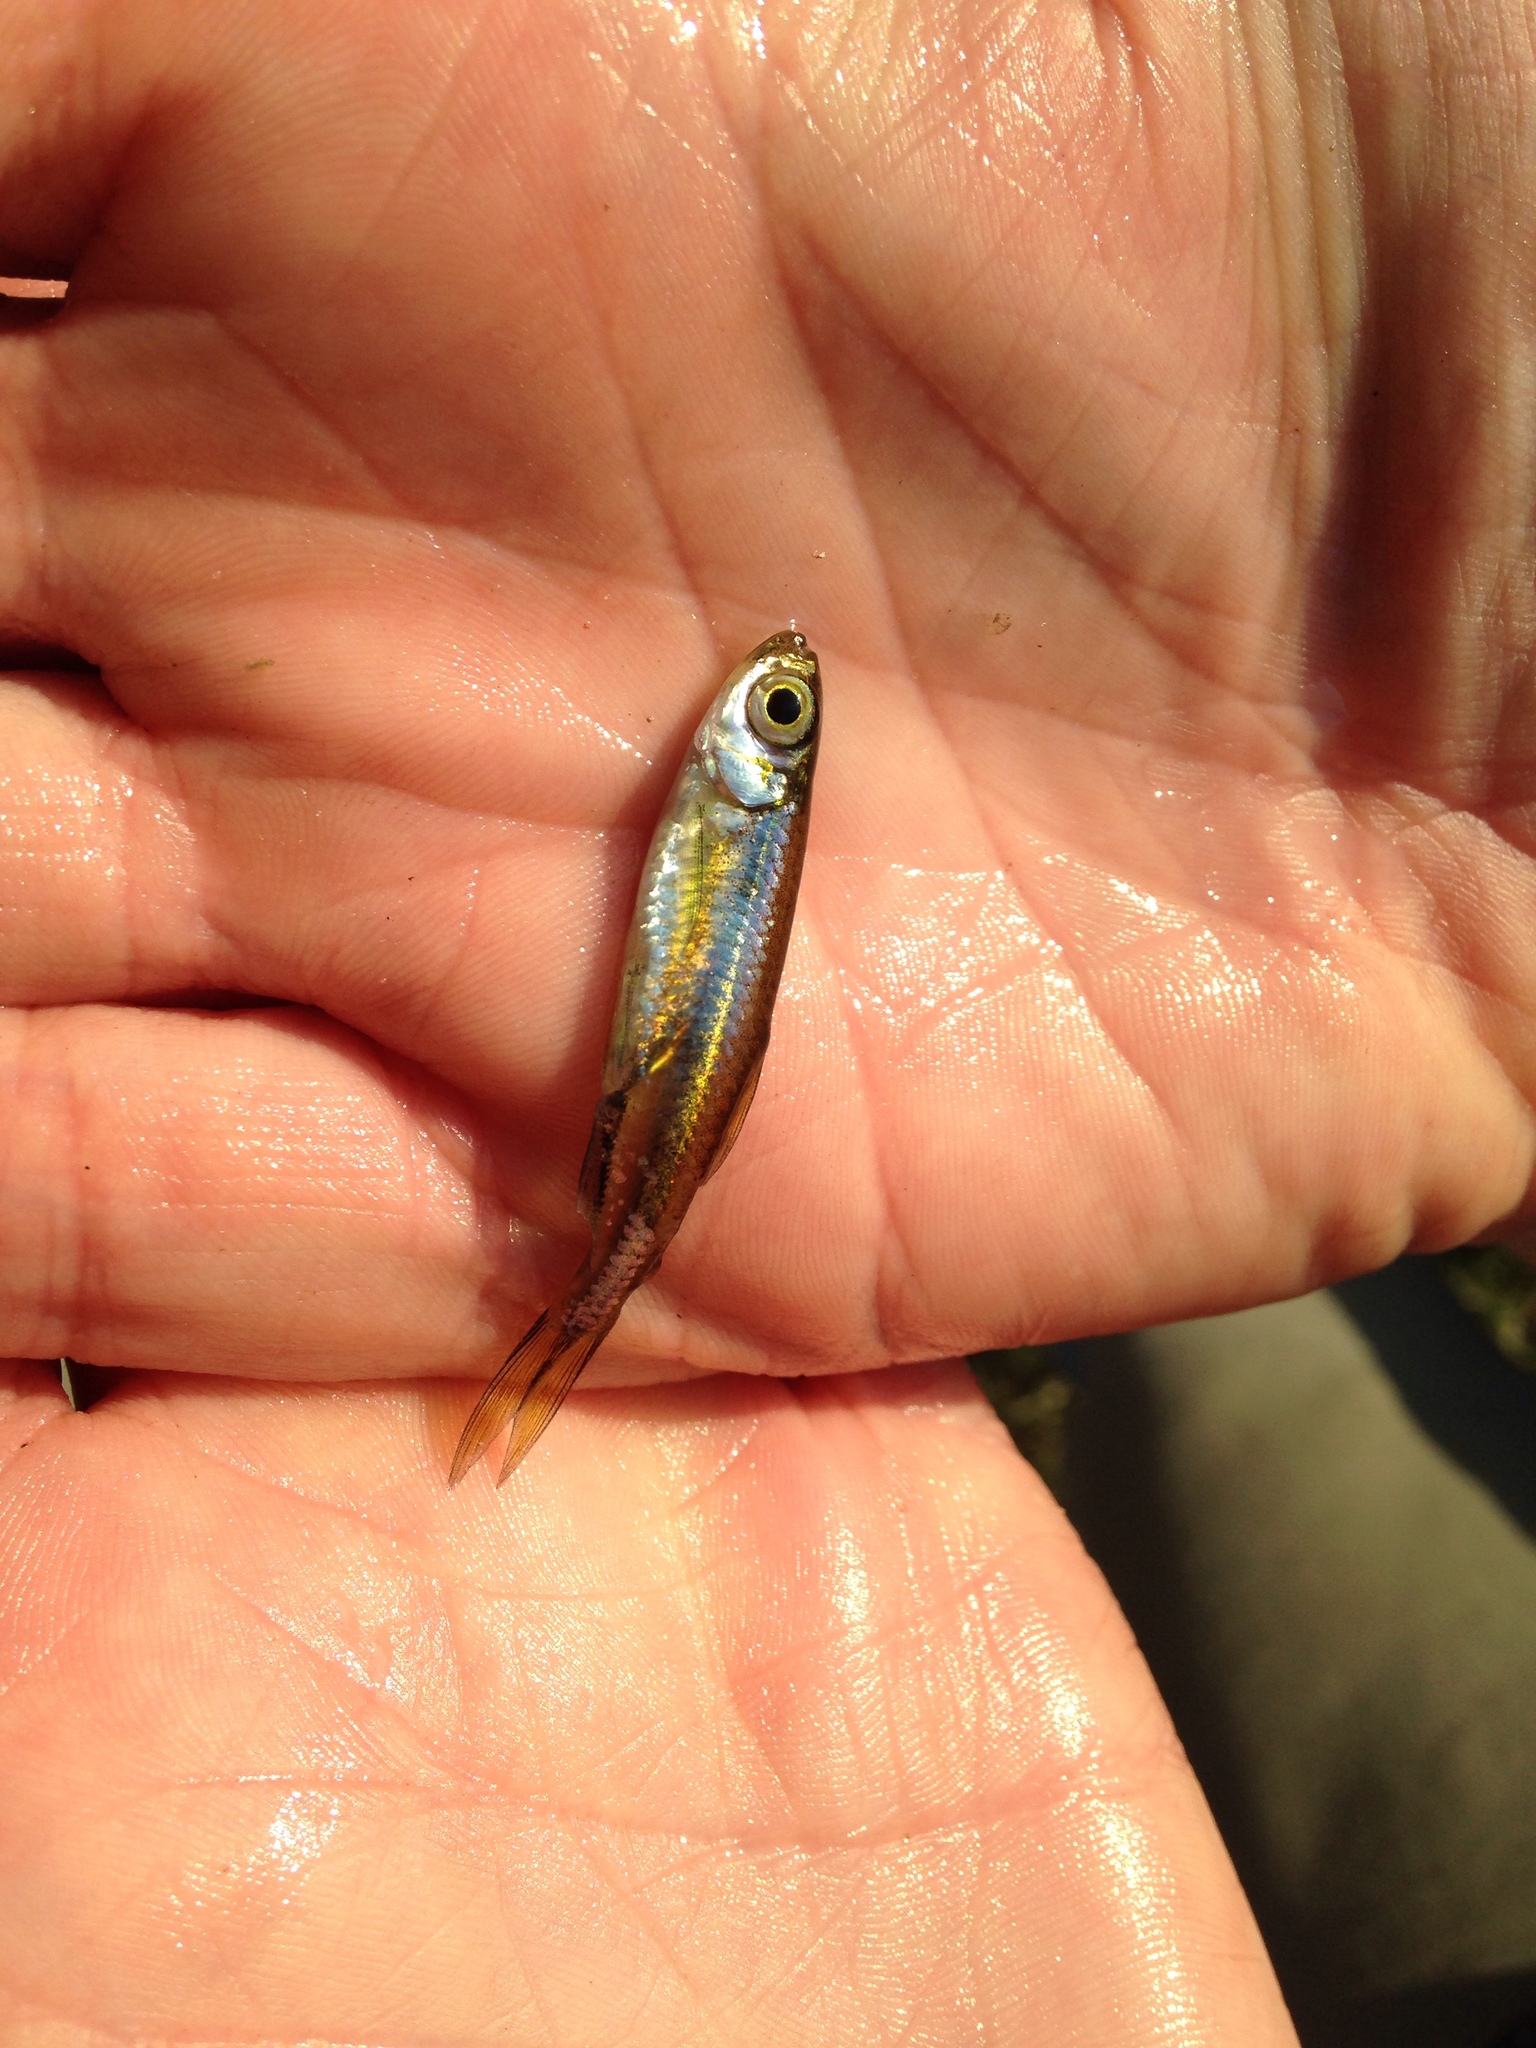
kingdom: Animalia
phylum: Chordata
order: Characiformes
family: Alestidae
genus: Rhabdalestes
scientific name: Rhabdalestes maunensis
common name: Slender robber
